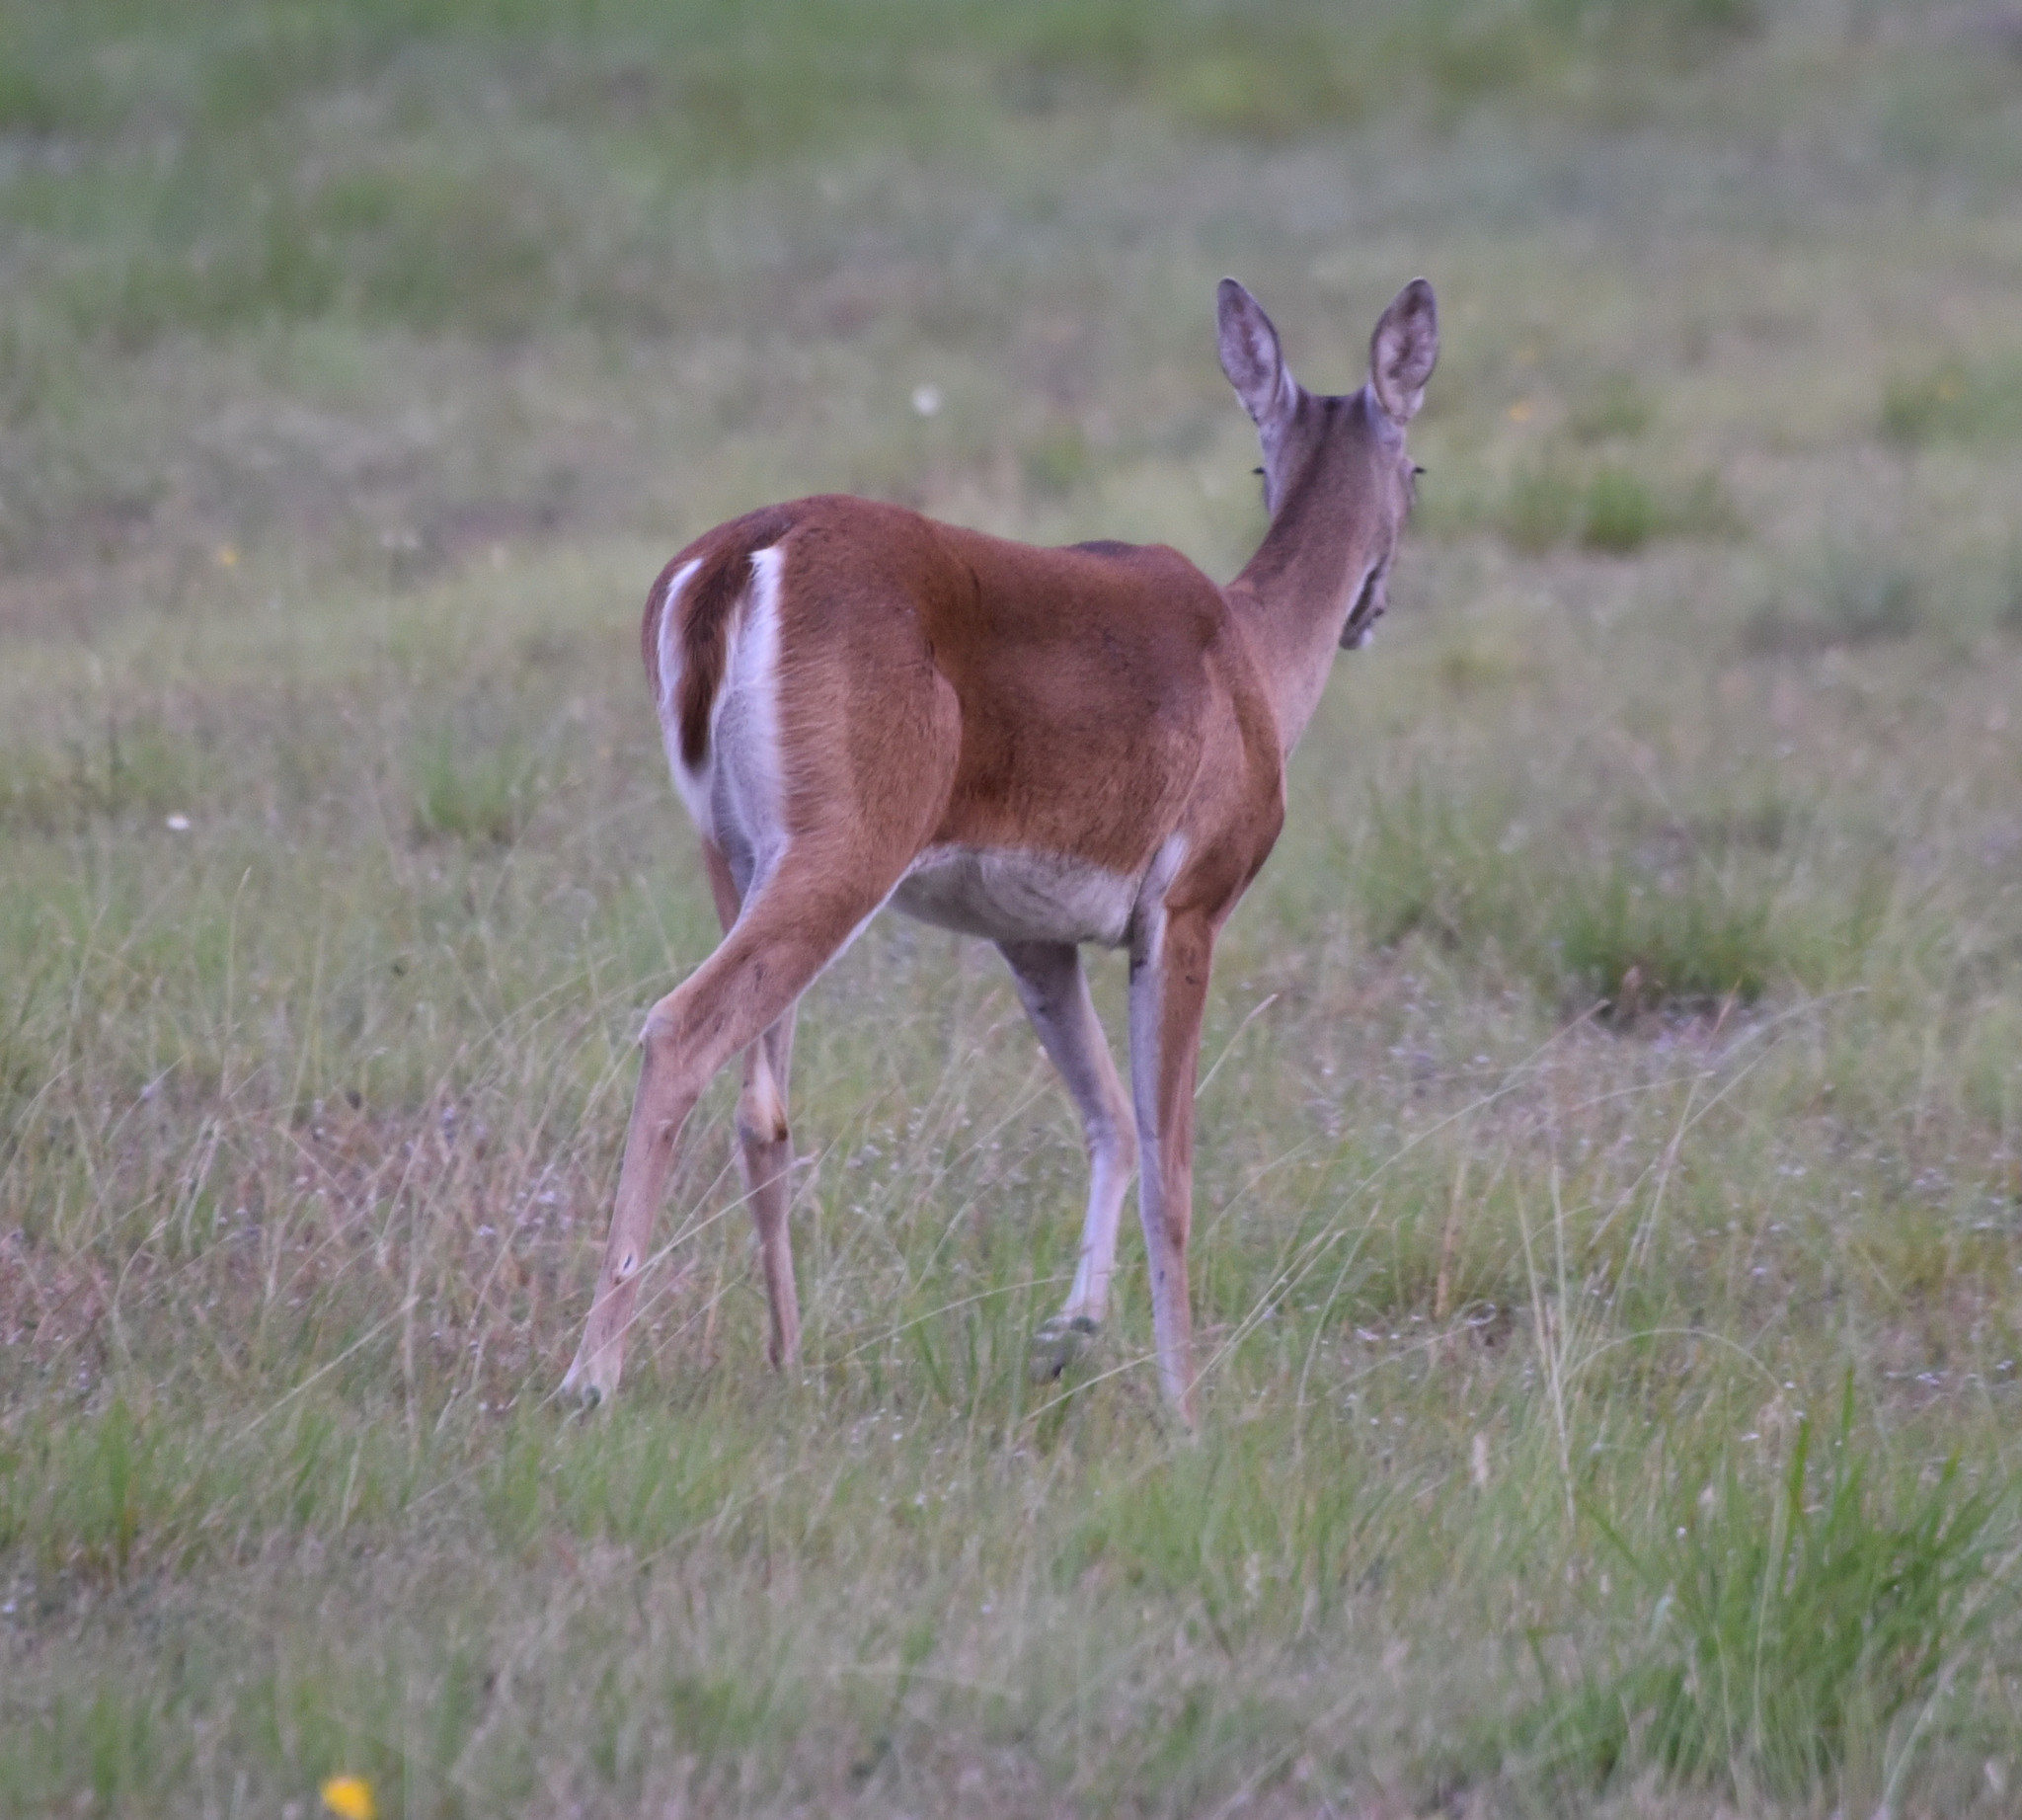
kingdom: Animalia
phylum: Chordata
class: Mammalia
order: Artiodactyla
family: Cervidae
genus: Odocoileus
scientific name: Odocoileus virginianus
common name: White-tailed deer
